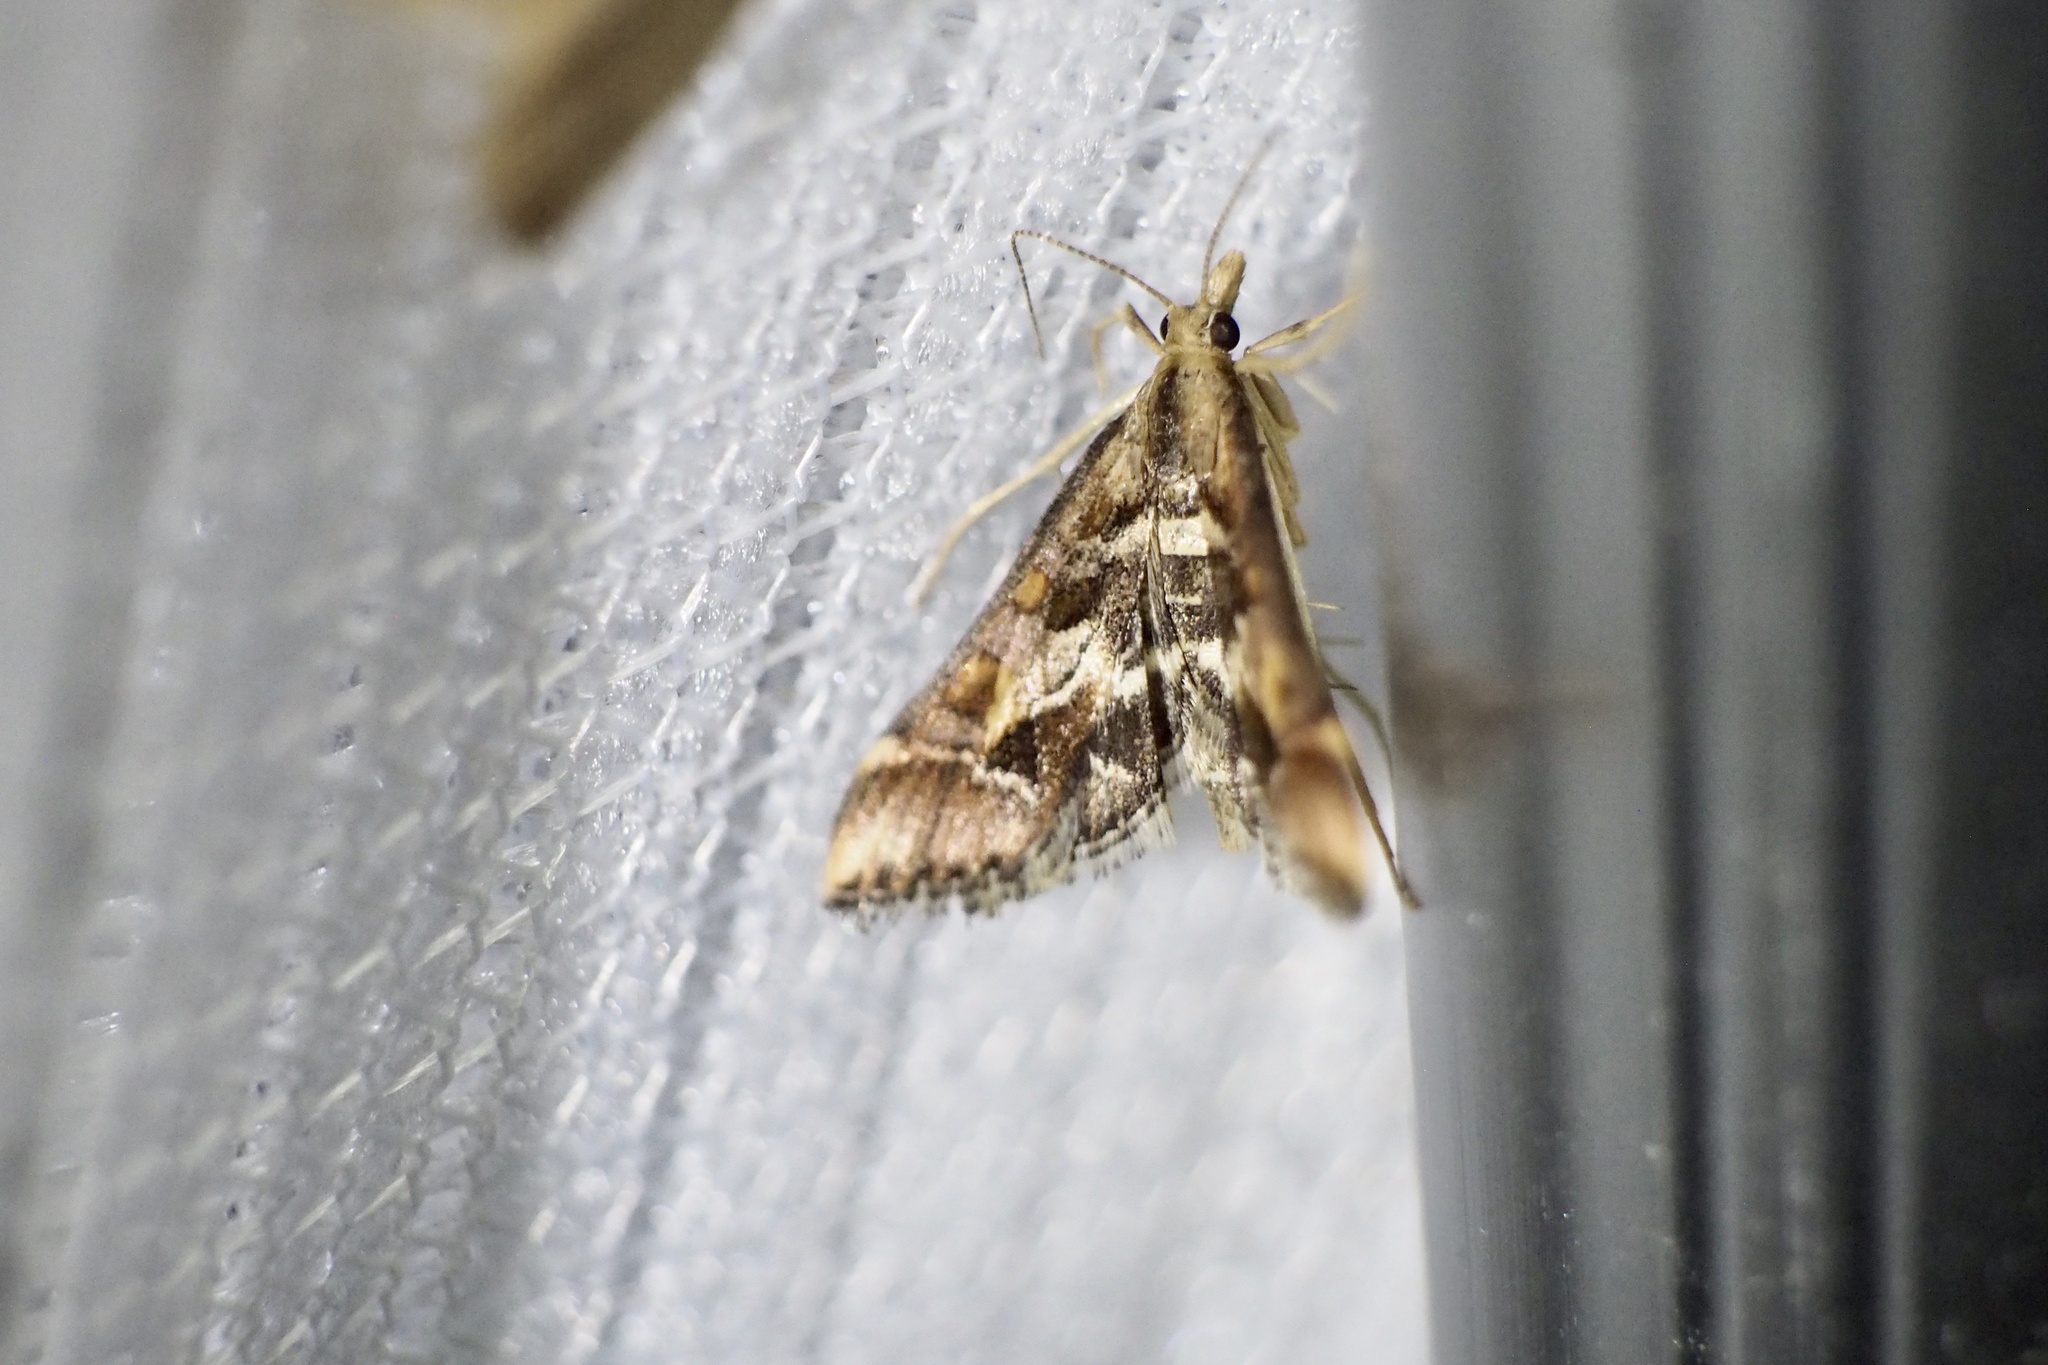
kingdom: Animalia
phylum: Arthropoda
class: Insecta
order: Lepidoptera
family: Crambidae
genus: Diasemia
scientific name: Diasemia accalis
